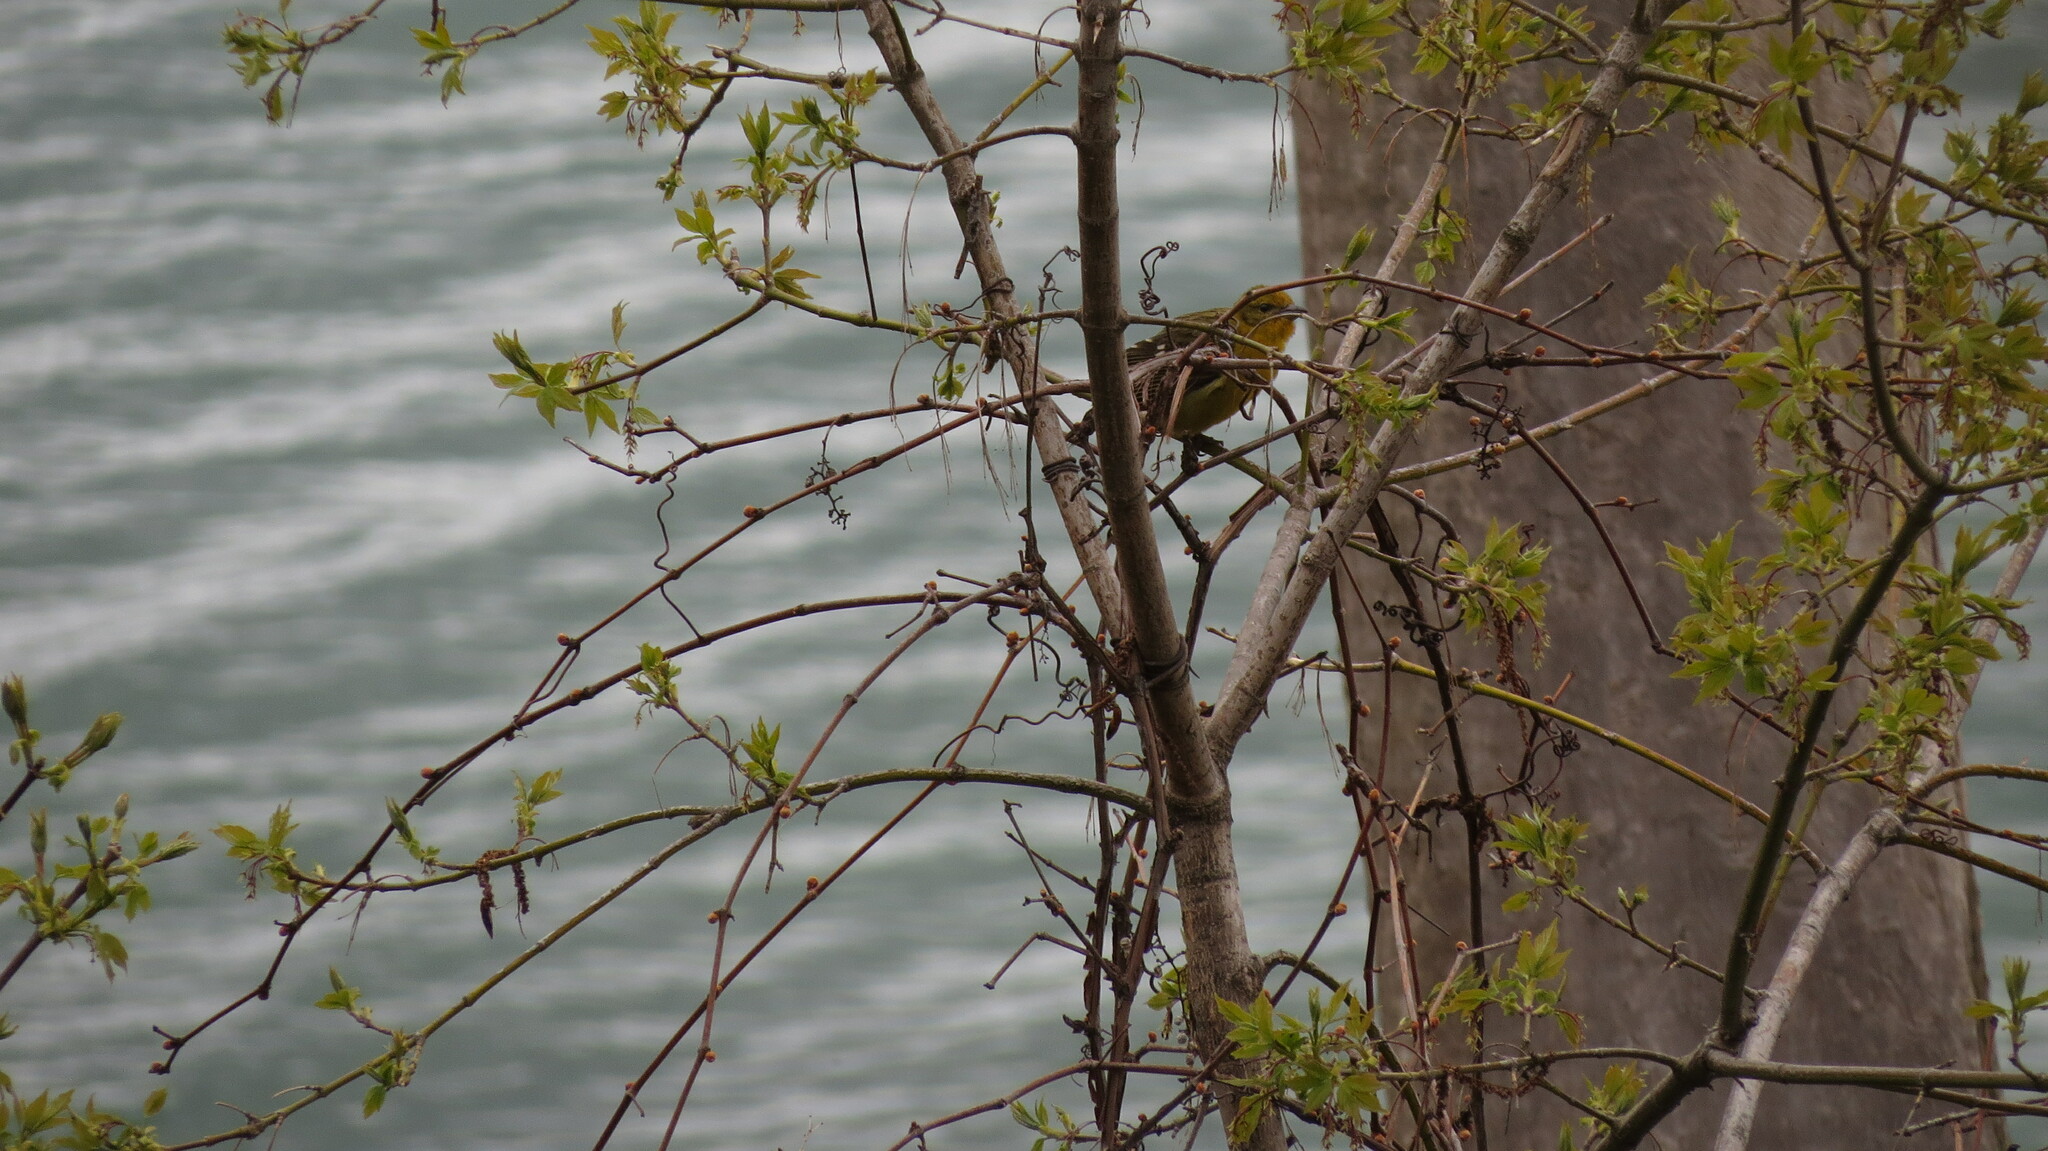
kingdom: Animalia
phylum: Chordata
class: Aves
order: Passeriformes
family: Cardinalidae
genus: Piranga
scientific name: Piranga bidentata
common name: Flame-colored tanager
